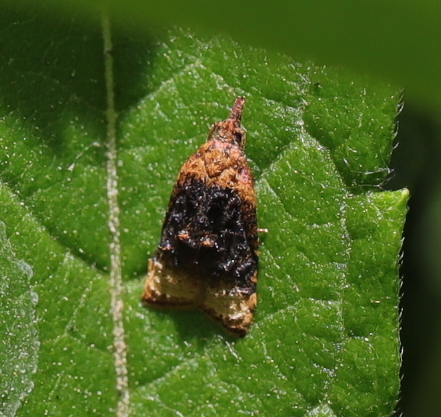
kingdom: Animalia
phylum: Arthropoda
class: Insecta
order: Lepidoptera
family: Tortricidae
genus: Platynota
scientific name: Platynota flavedana
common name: Black-shaded platynota moth
